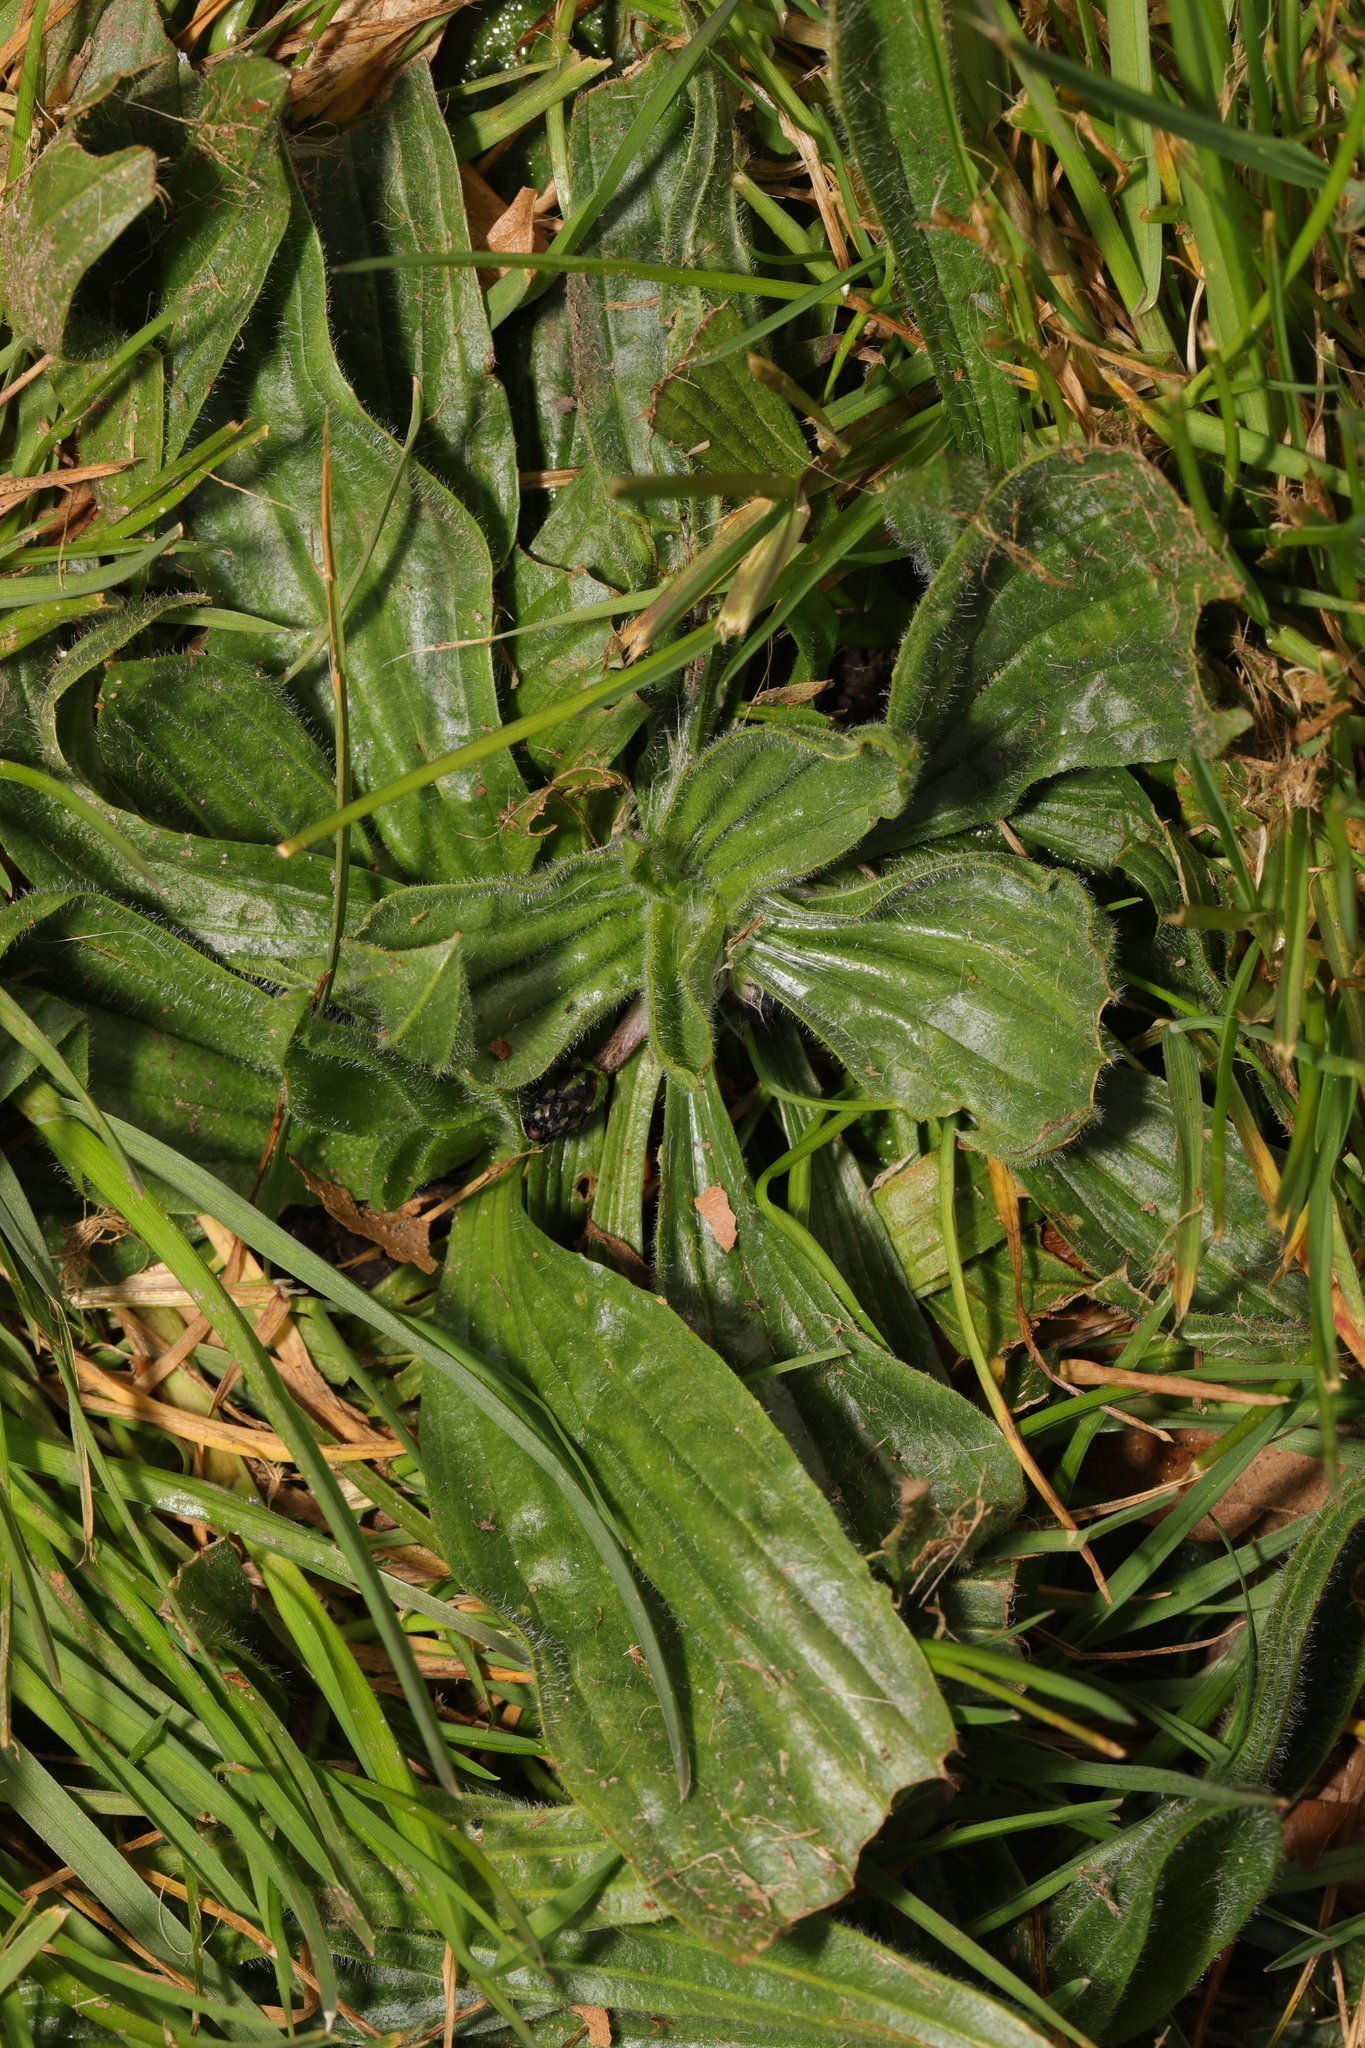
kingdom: Plantae
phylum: Tracheophyta
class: Magnoliopsida
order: Lamiales
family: Plantaginaceae
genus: Plantago
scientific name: Plantago lanceolata
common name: Ribwort plantain
